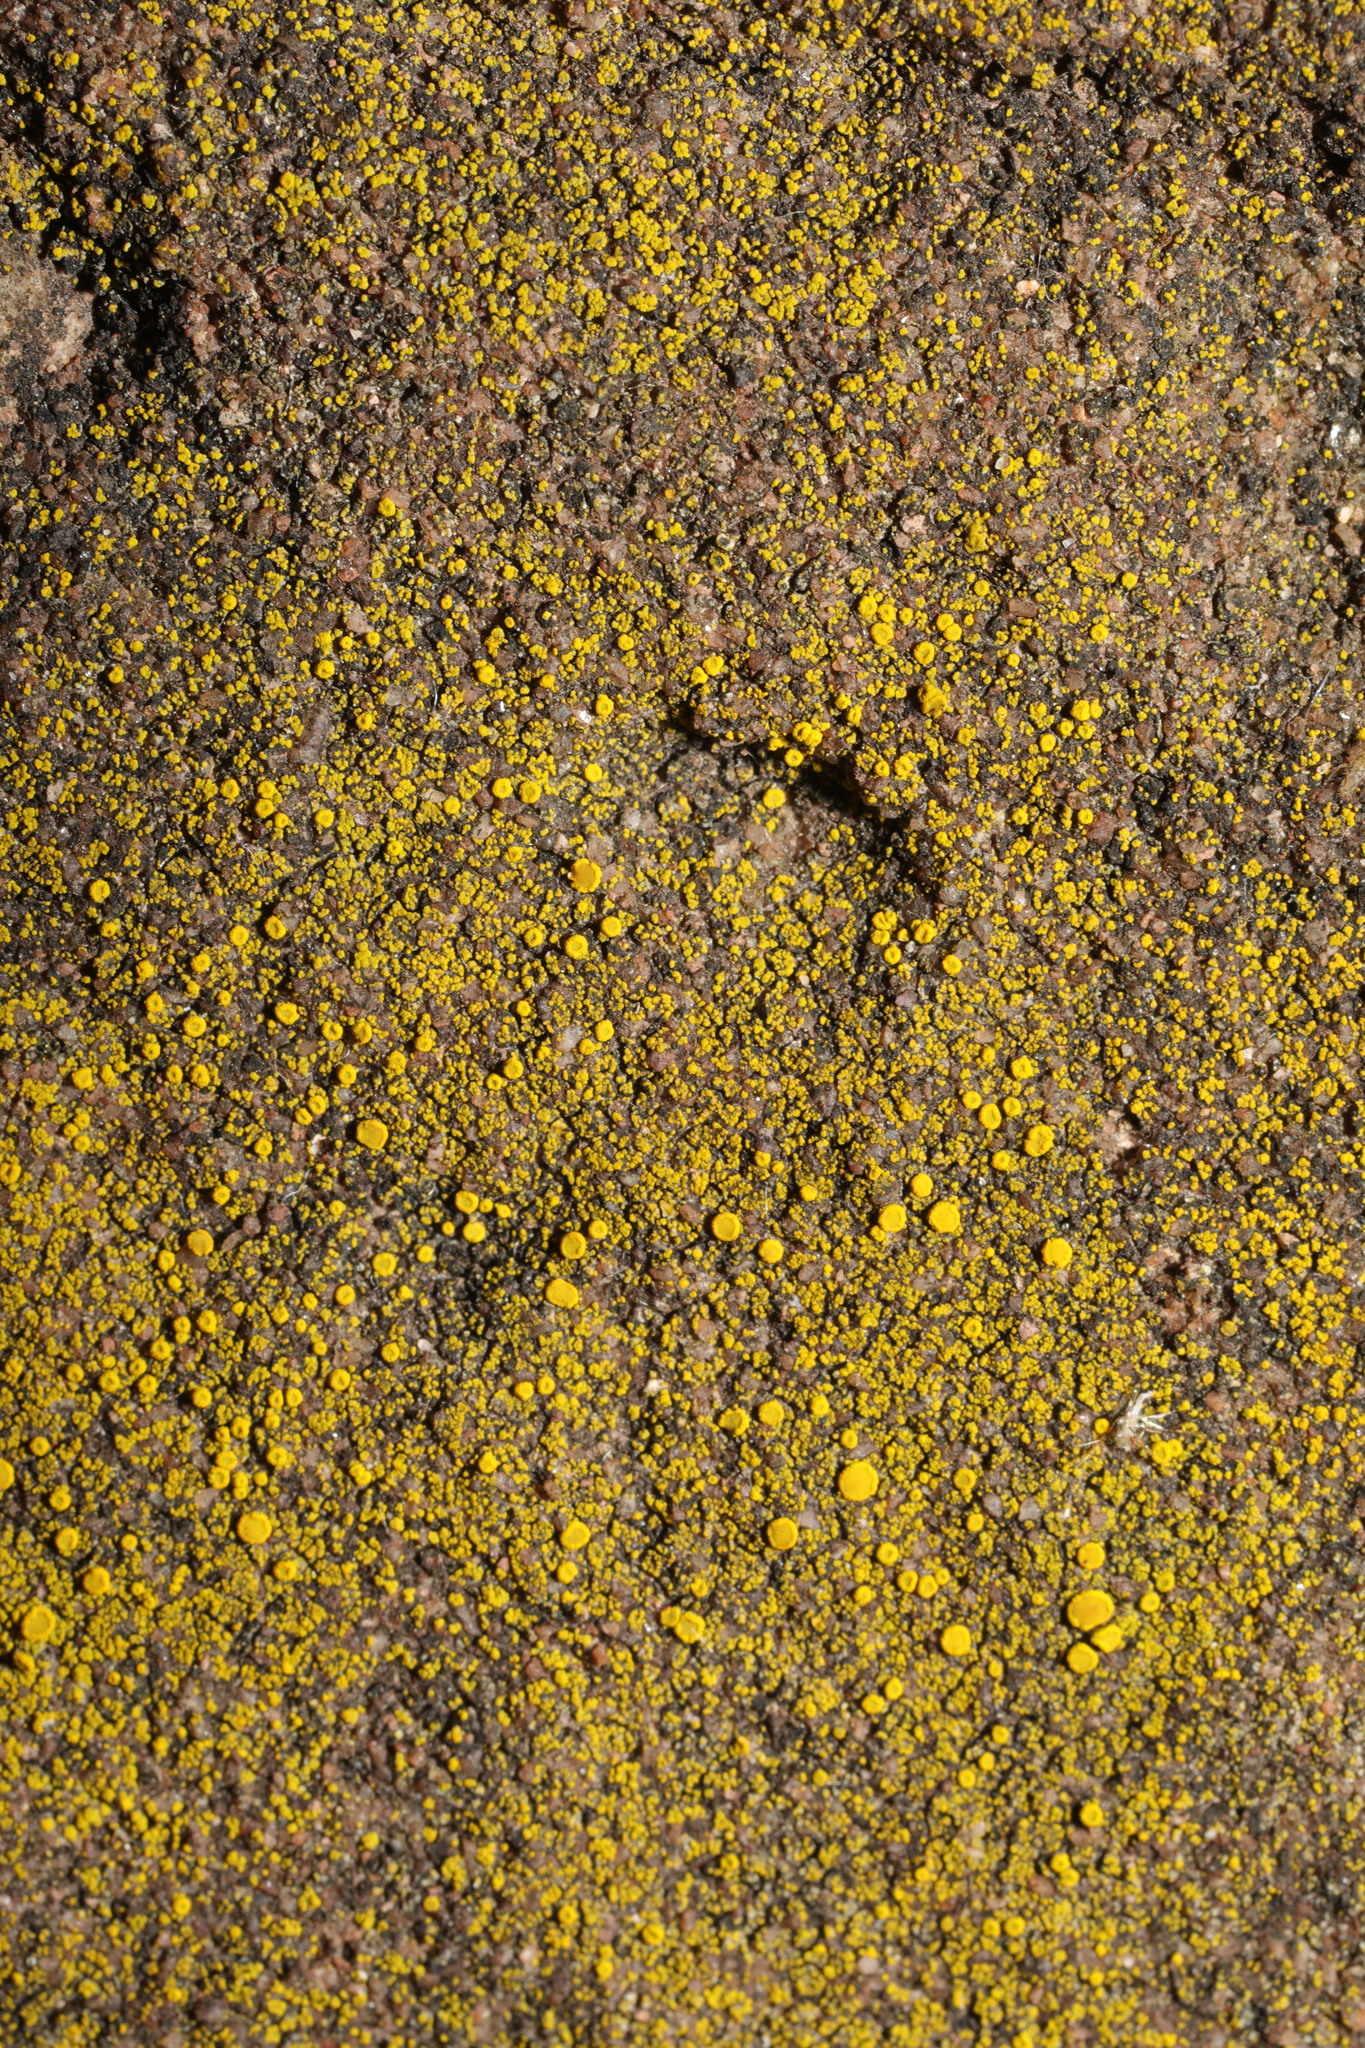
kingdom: Fungi
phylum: Ascomycota
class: Candelariomycetes
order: Candelariales
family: Candelariaceae
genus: Candelariella
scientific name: Candelariella vitellina
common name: Common goldspeck
